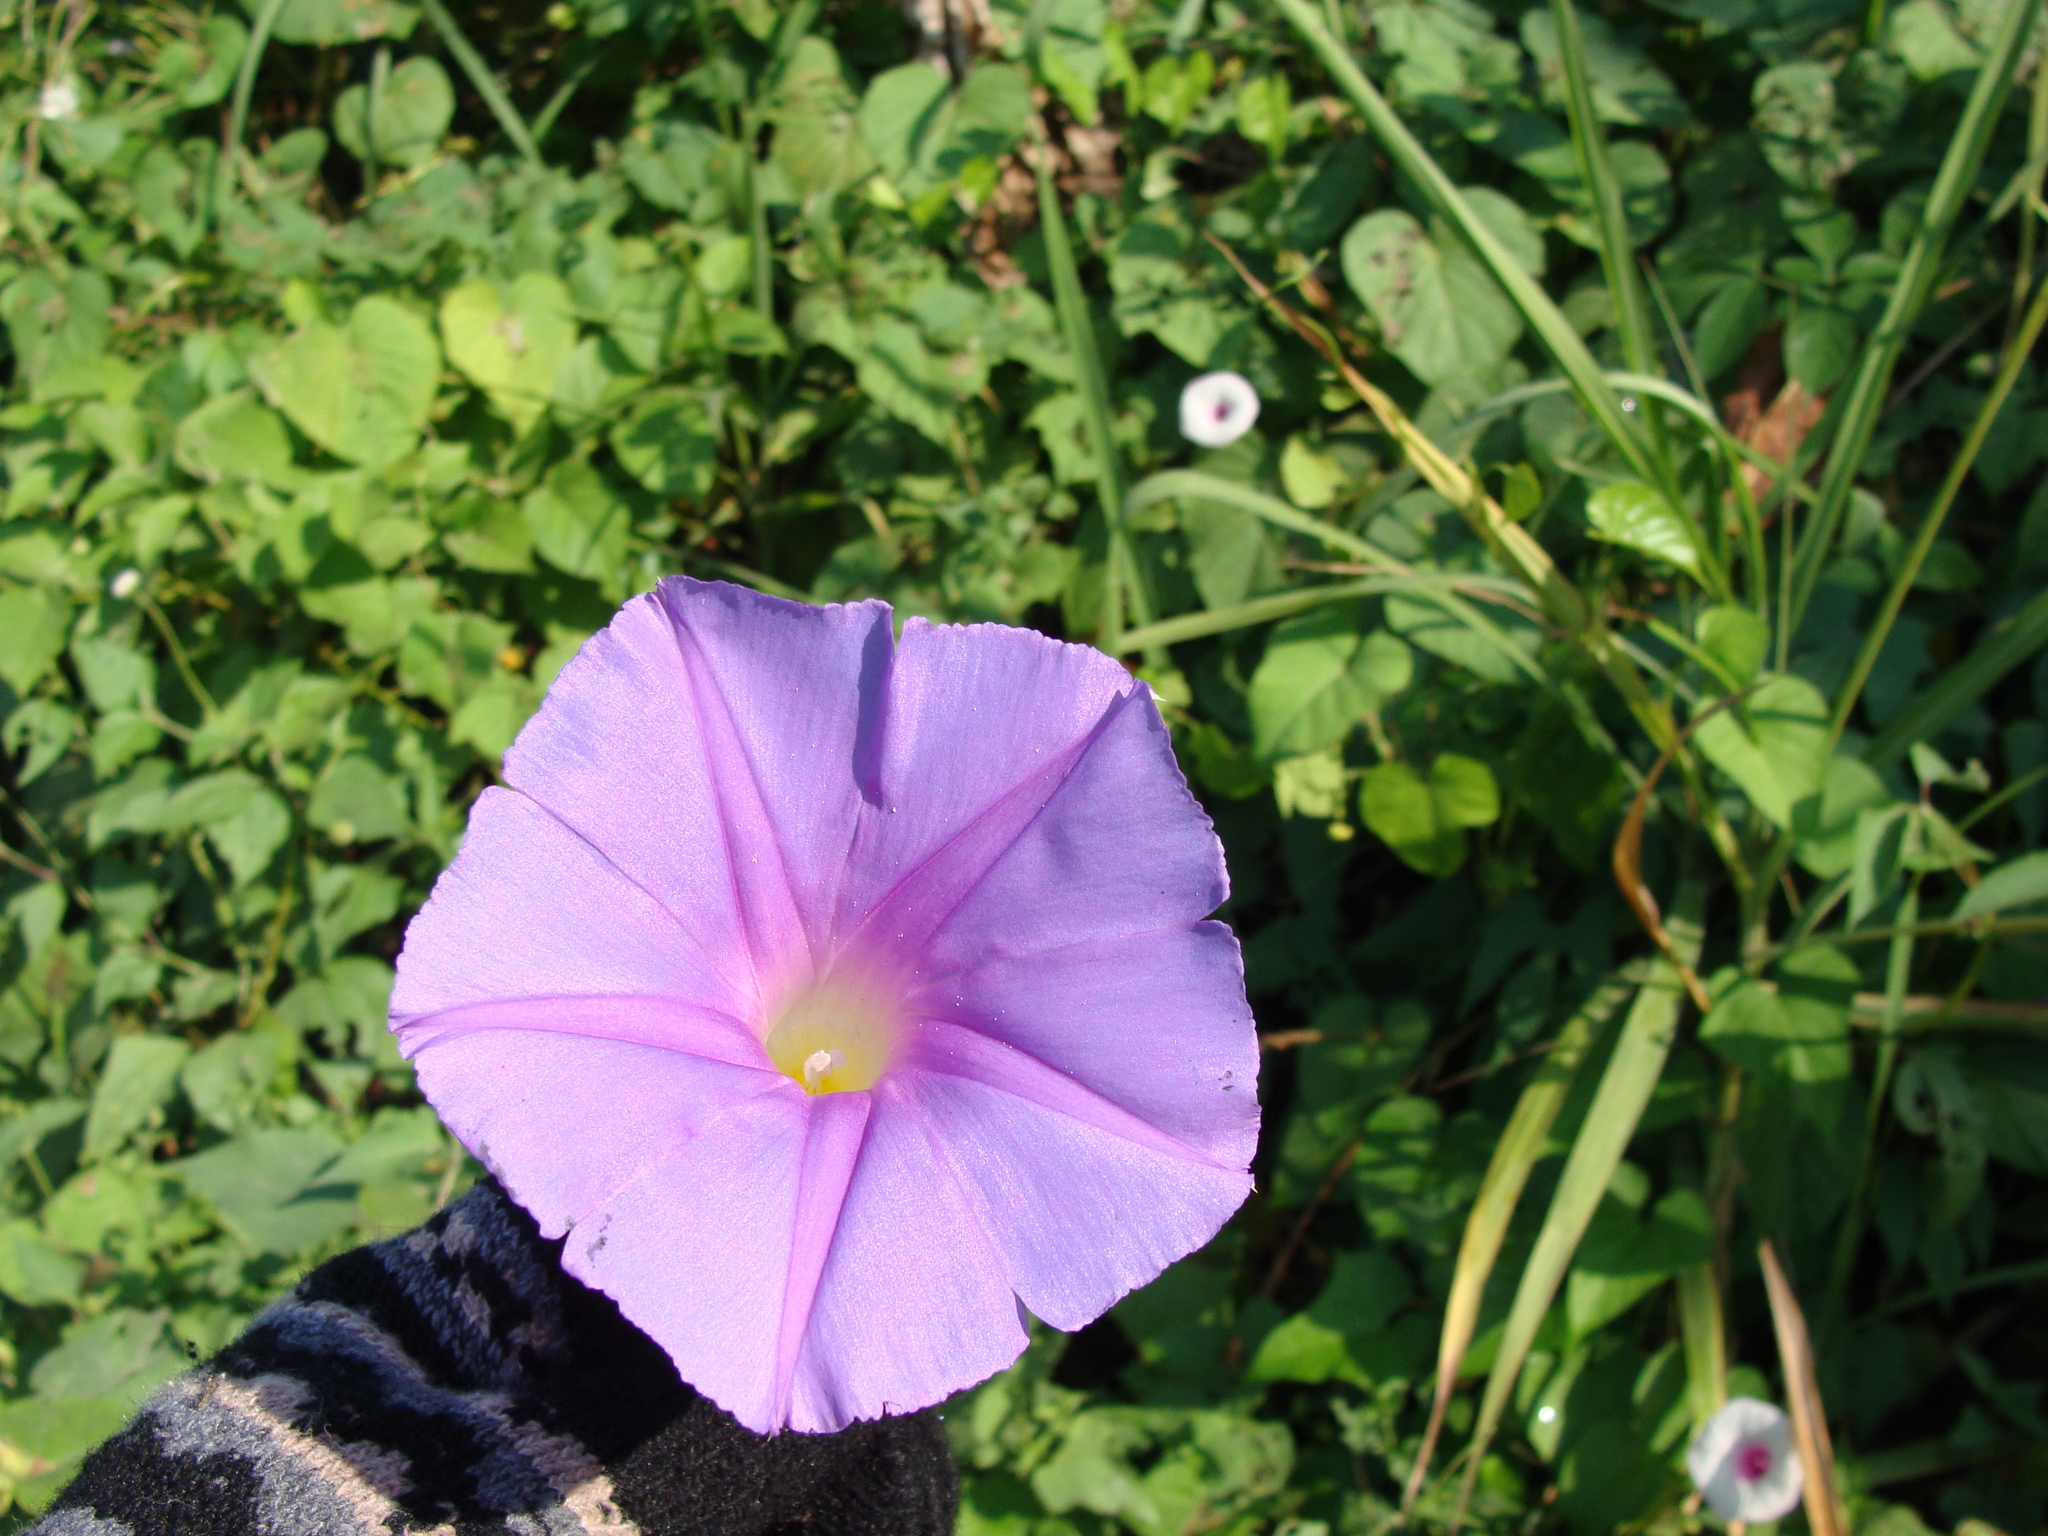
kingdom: Plantae
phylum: Tracheophyta
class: Magnoliopsida
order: Solanales
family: Convolvulaceae
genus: Ipomoea
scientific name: Ipomoea mitchelliae
